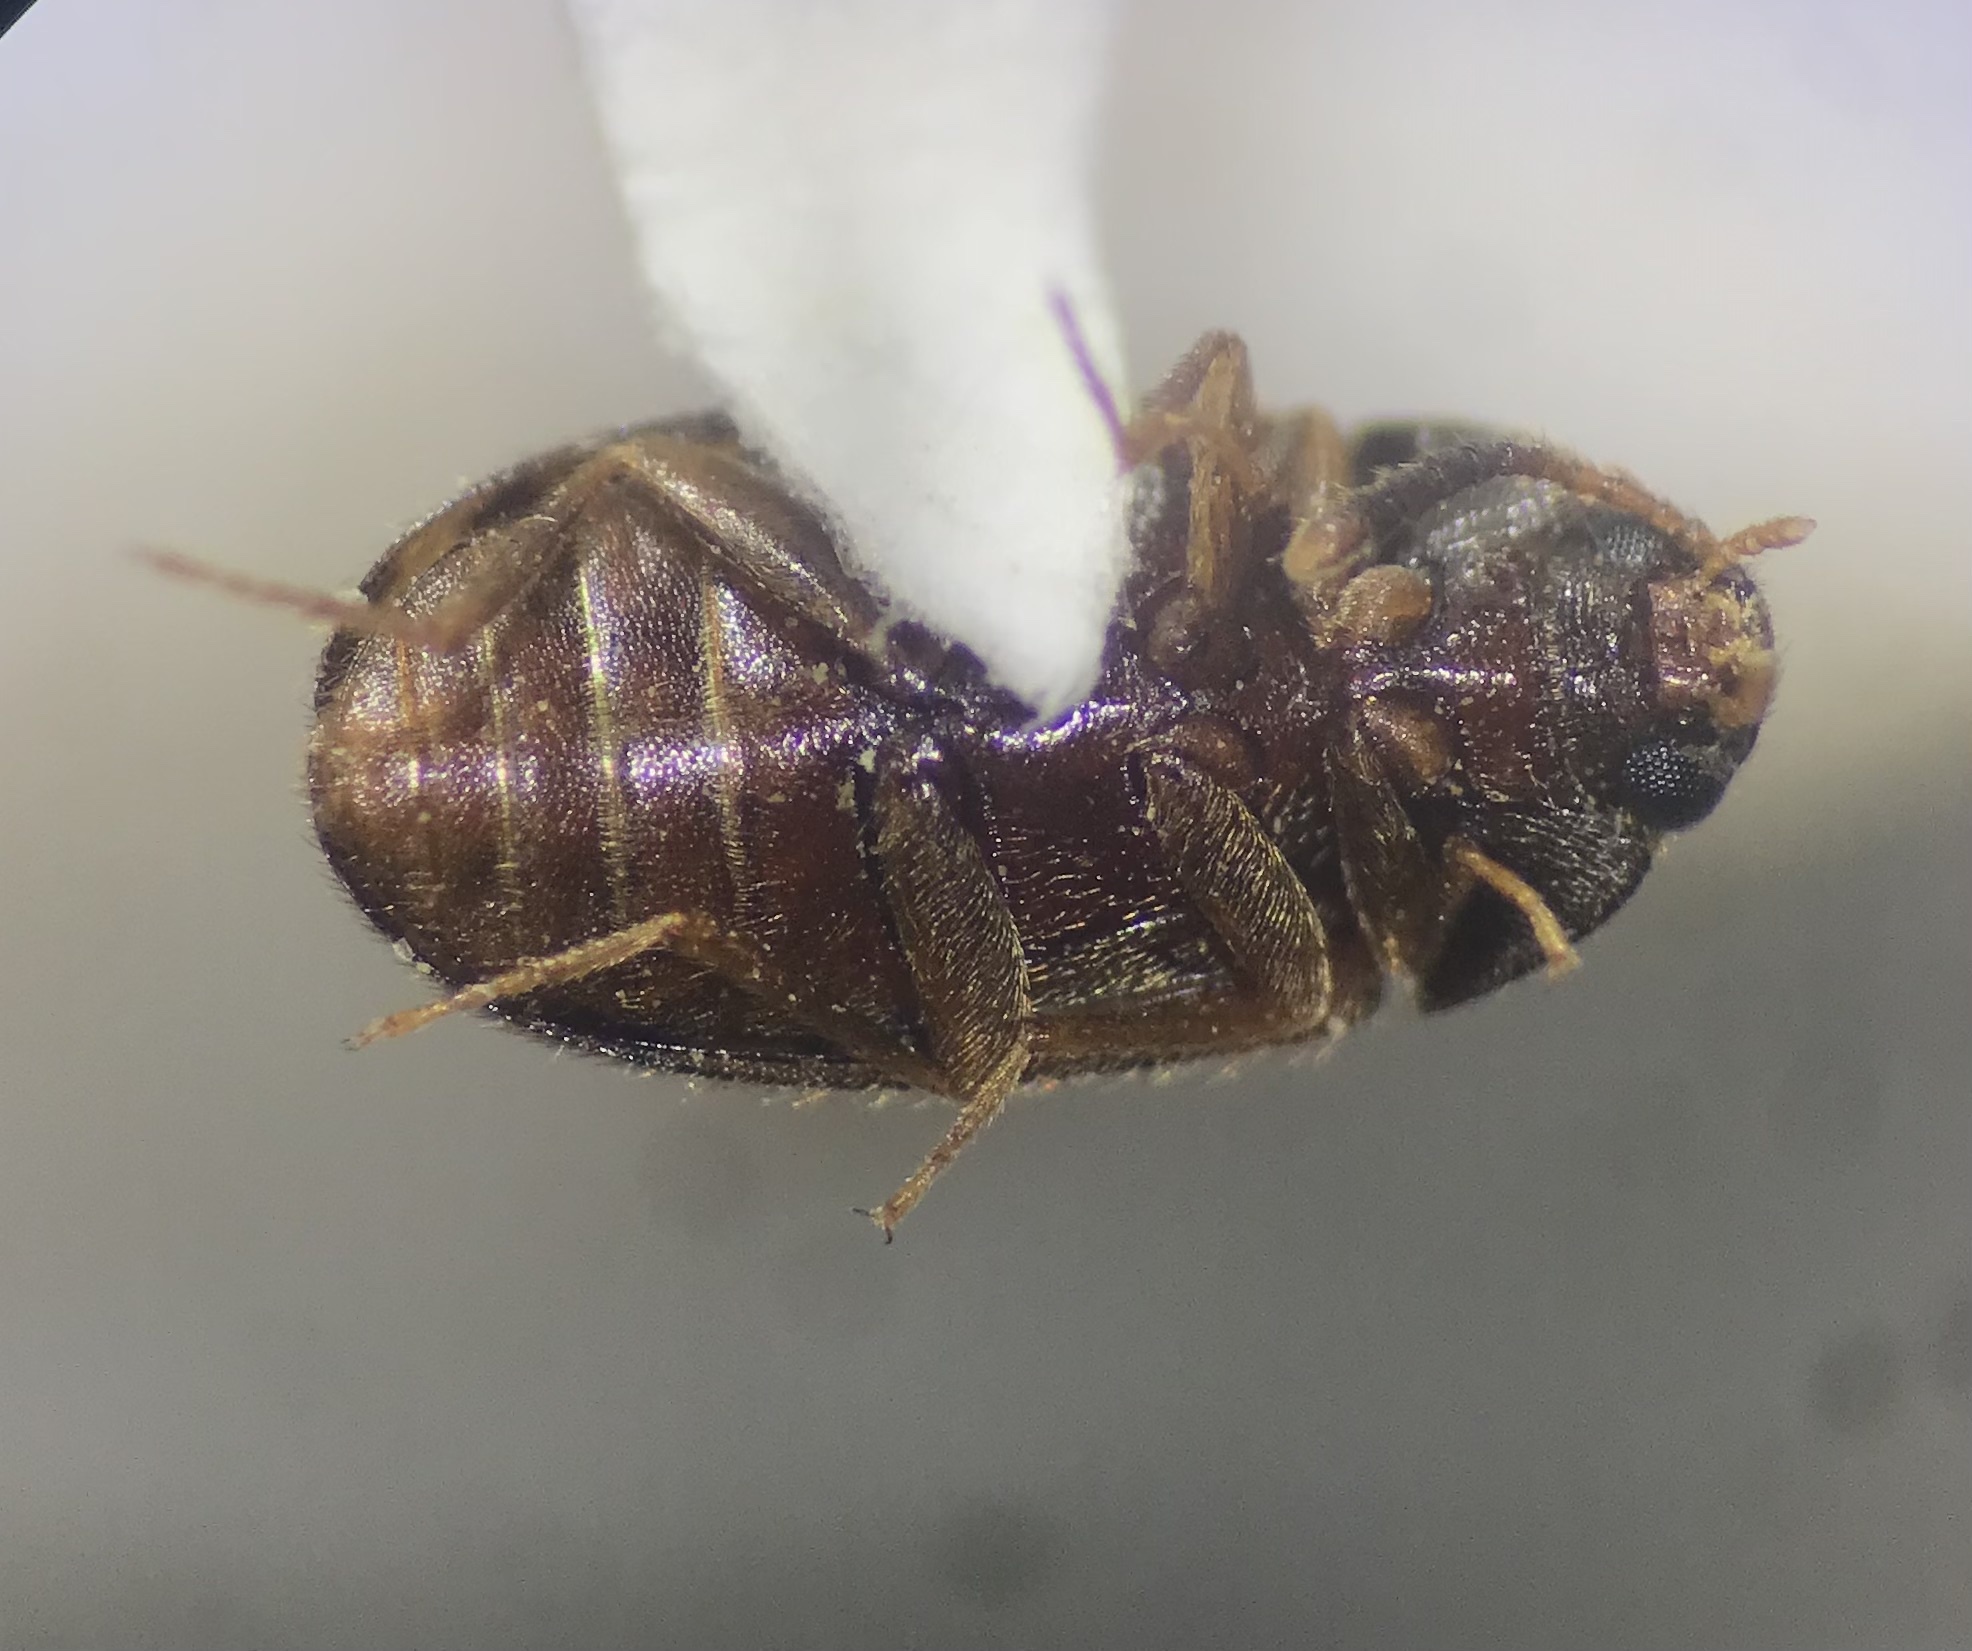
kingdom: Animalia
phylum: Arthropoda
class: Insecta
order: Coleoptera
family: Mycetophagidae
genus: Mycetophagus
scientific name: Mycetophagus flexuosus
